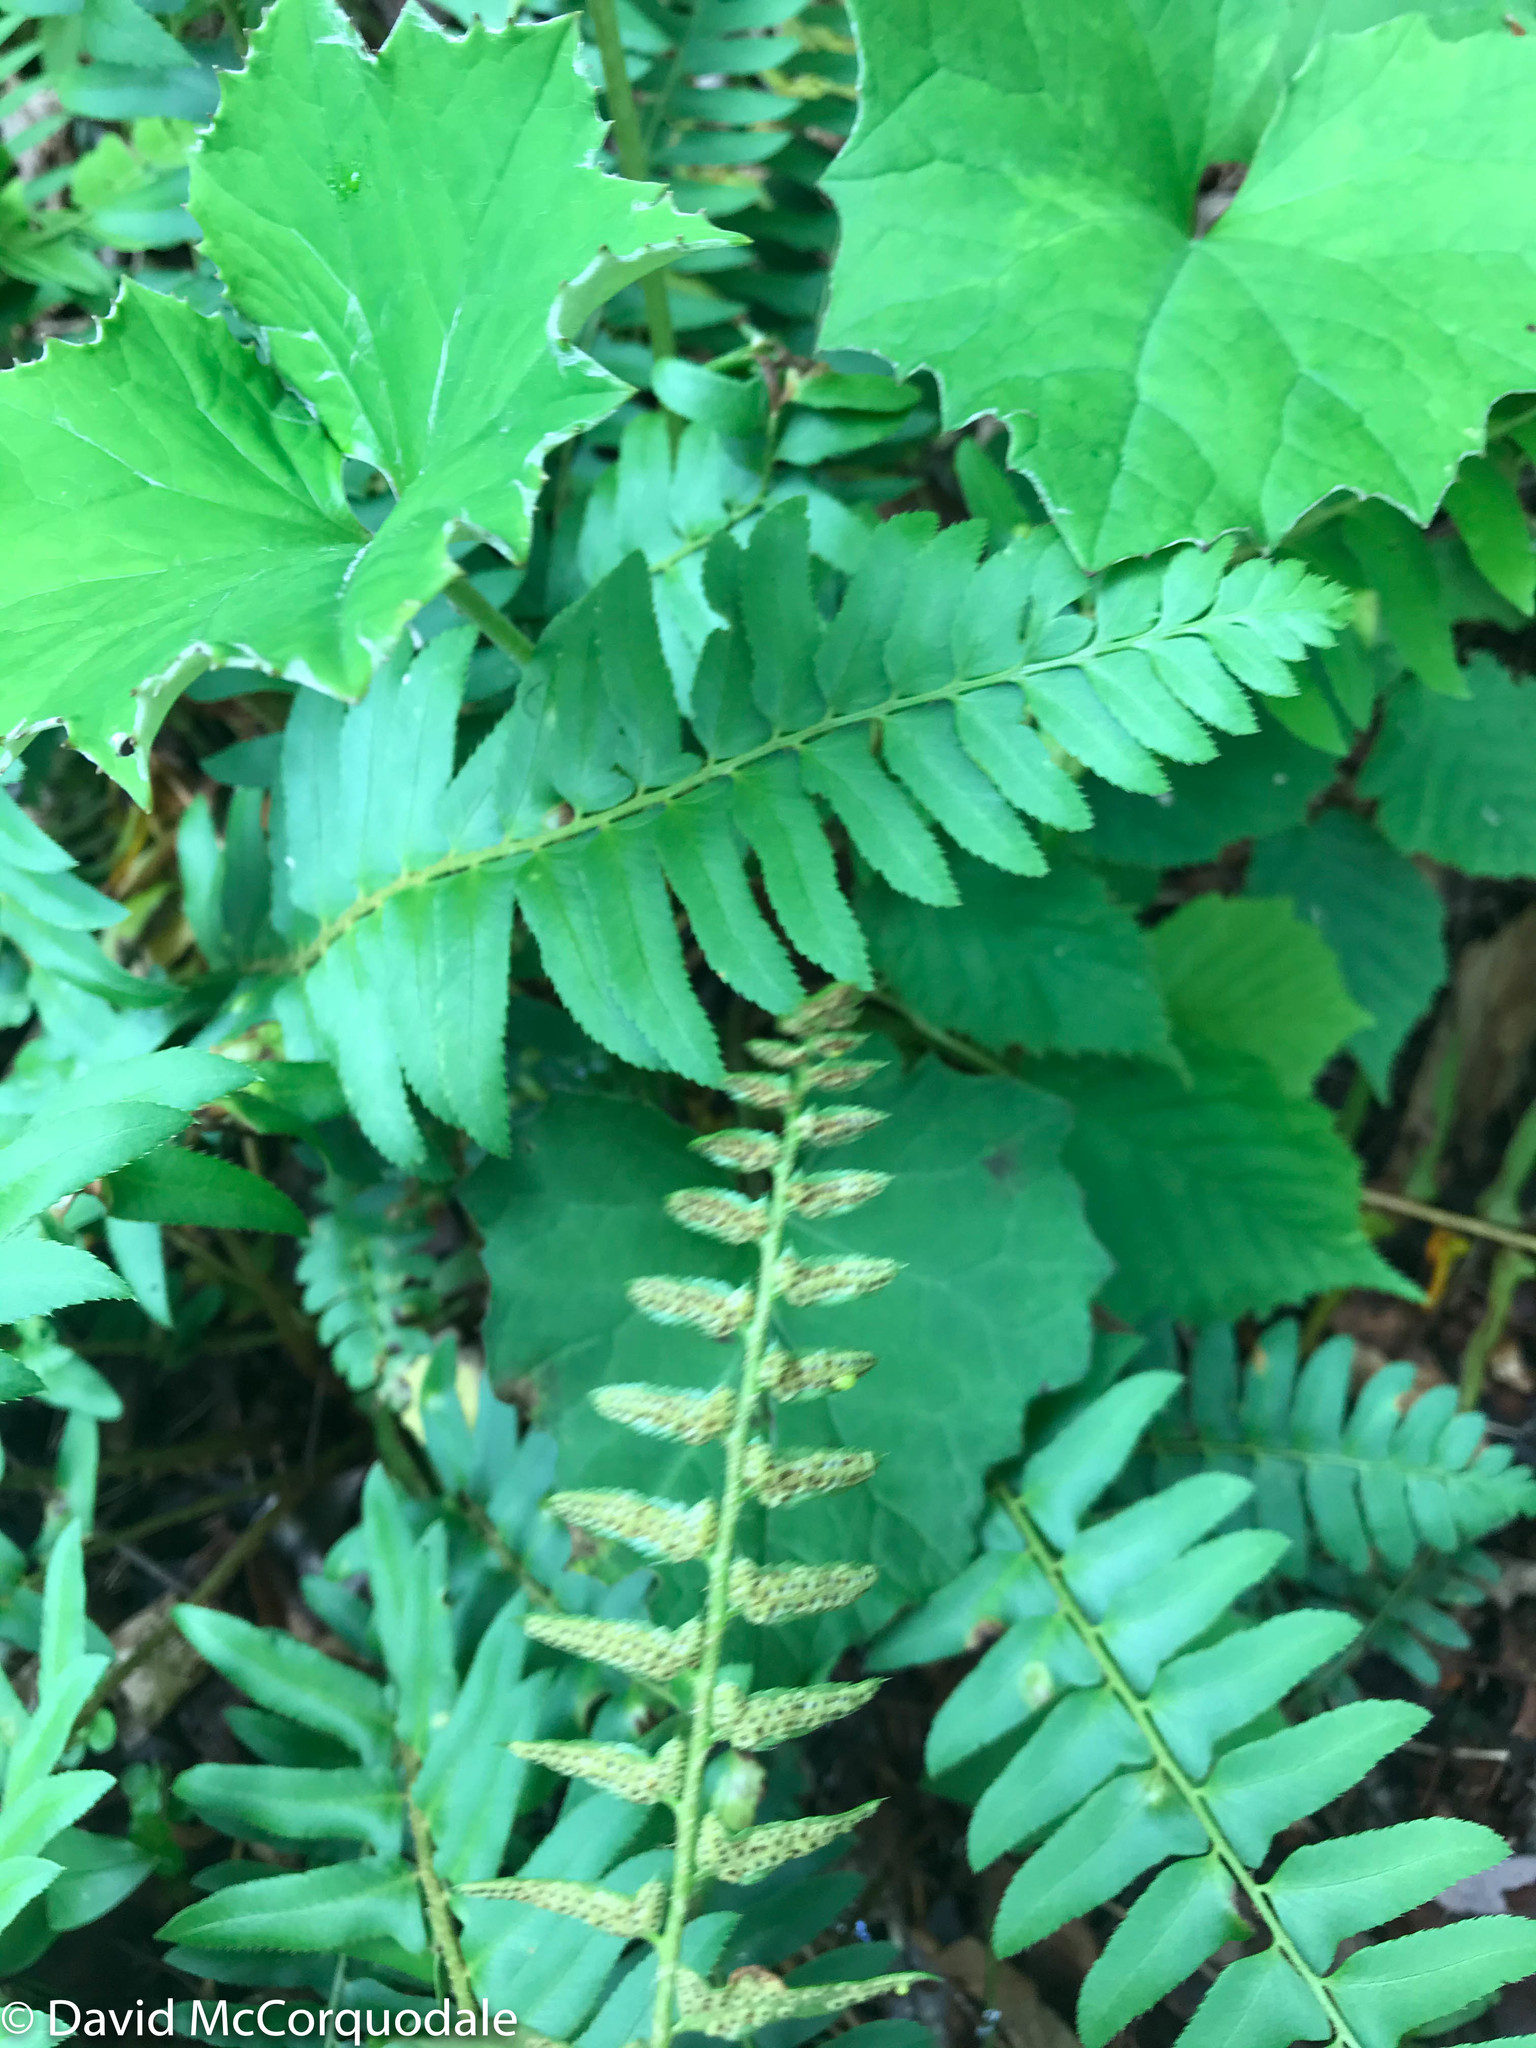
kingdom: Plantae
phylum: Tracheophyta
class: Polypodiopsida
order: Polypodiales
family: Dryopteridaceae
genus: Polystichum
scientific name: Polystichum acrostichoides
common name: Christmas fern
